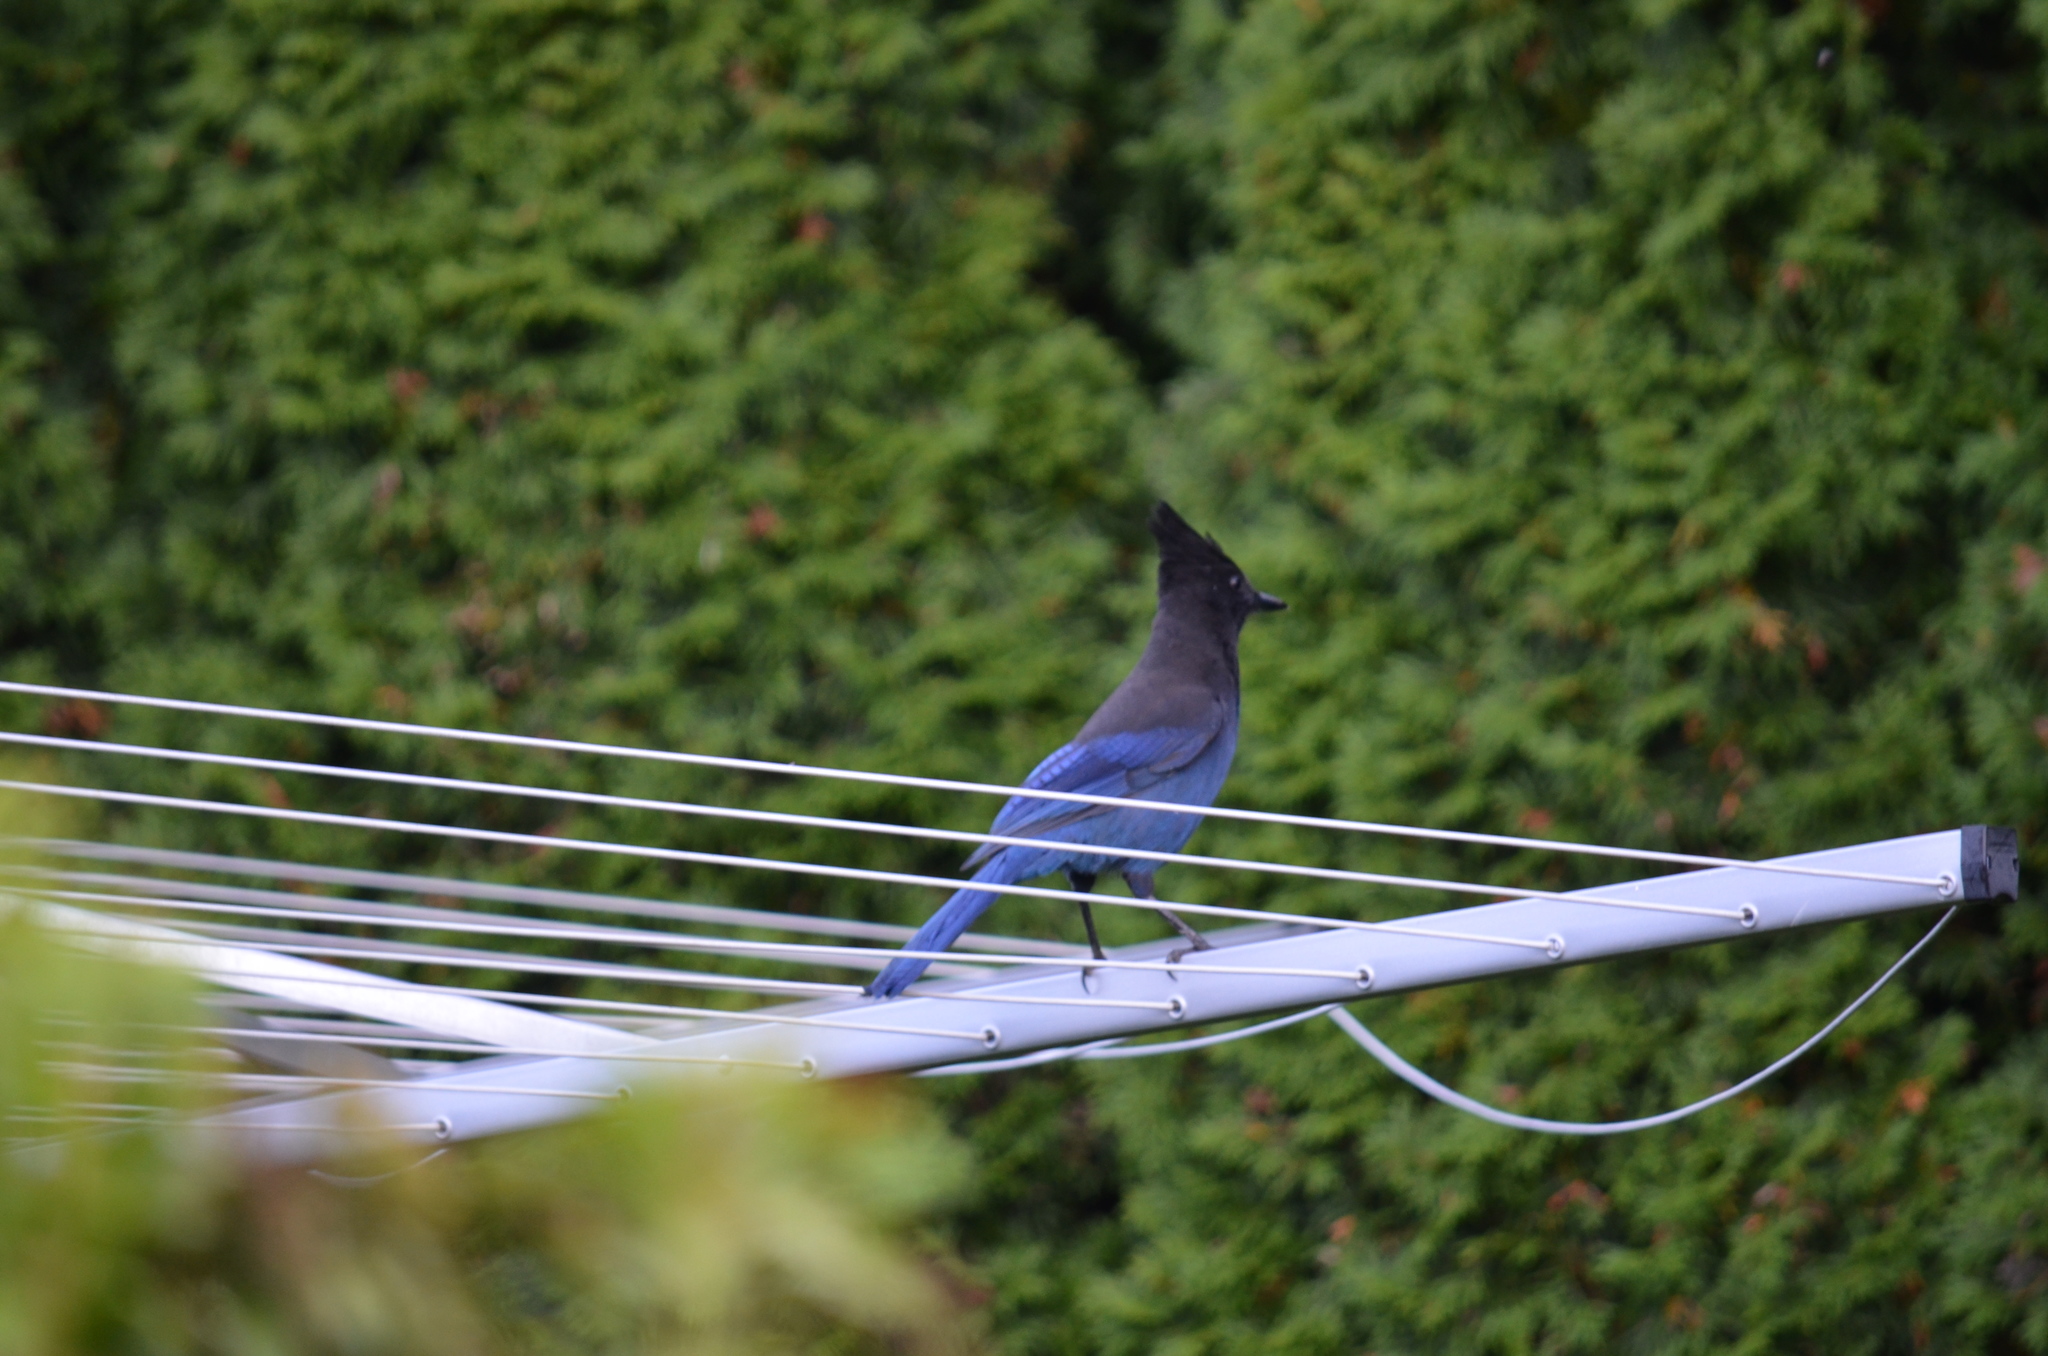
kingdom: Animalia
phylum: Chordata
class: Aves
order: Passeriformes
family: Corvidae
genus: Cyanocitta
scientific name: Cyanocitta stelleri
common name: Steller's jay
